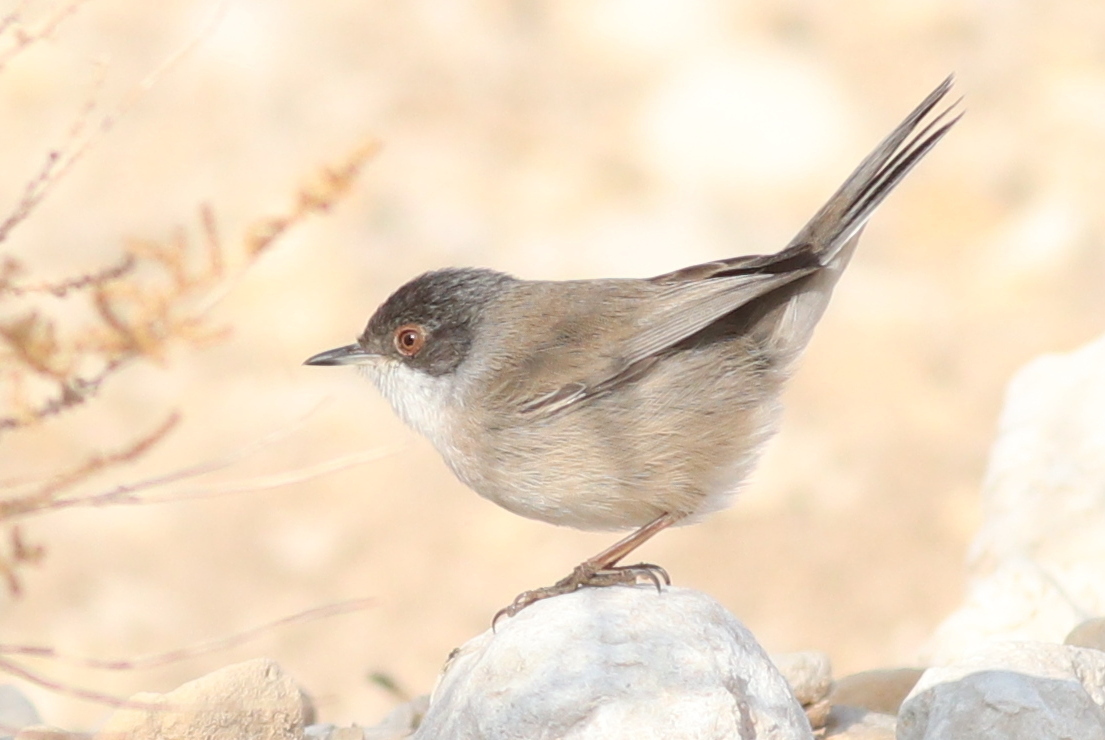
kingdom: Animalia
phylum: Chordata
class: Aves
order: Passeriformes
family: Sylviidae
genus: Curruca
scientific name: Curruca melanocephala
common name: Sardinian warbler
